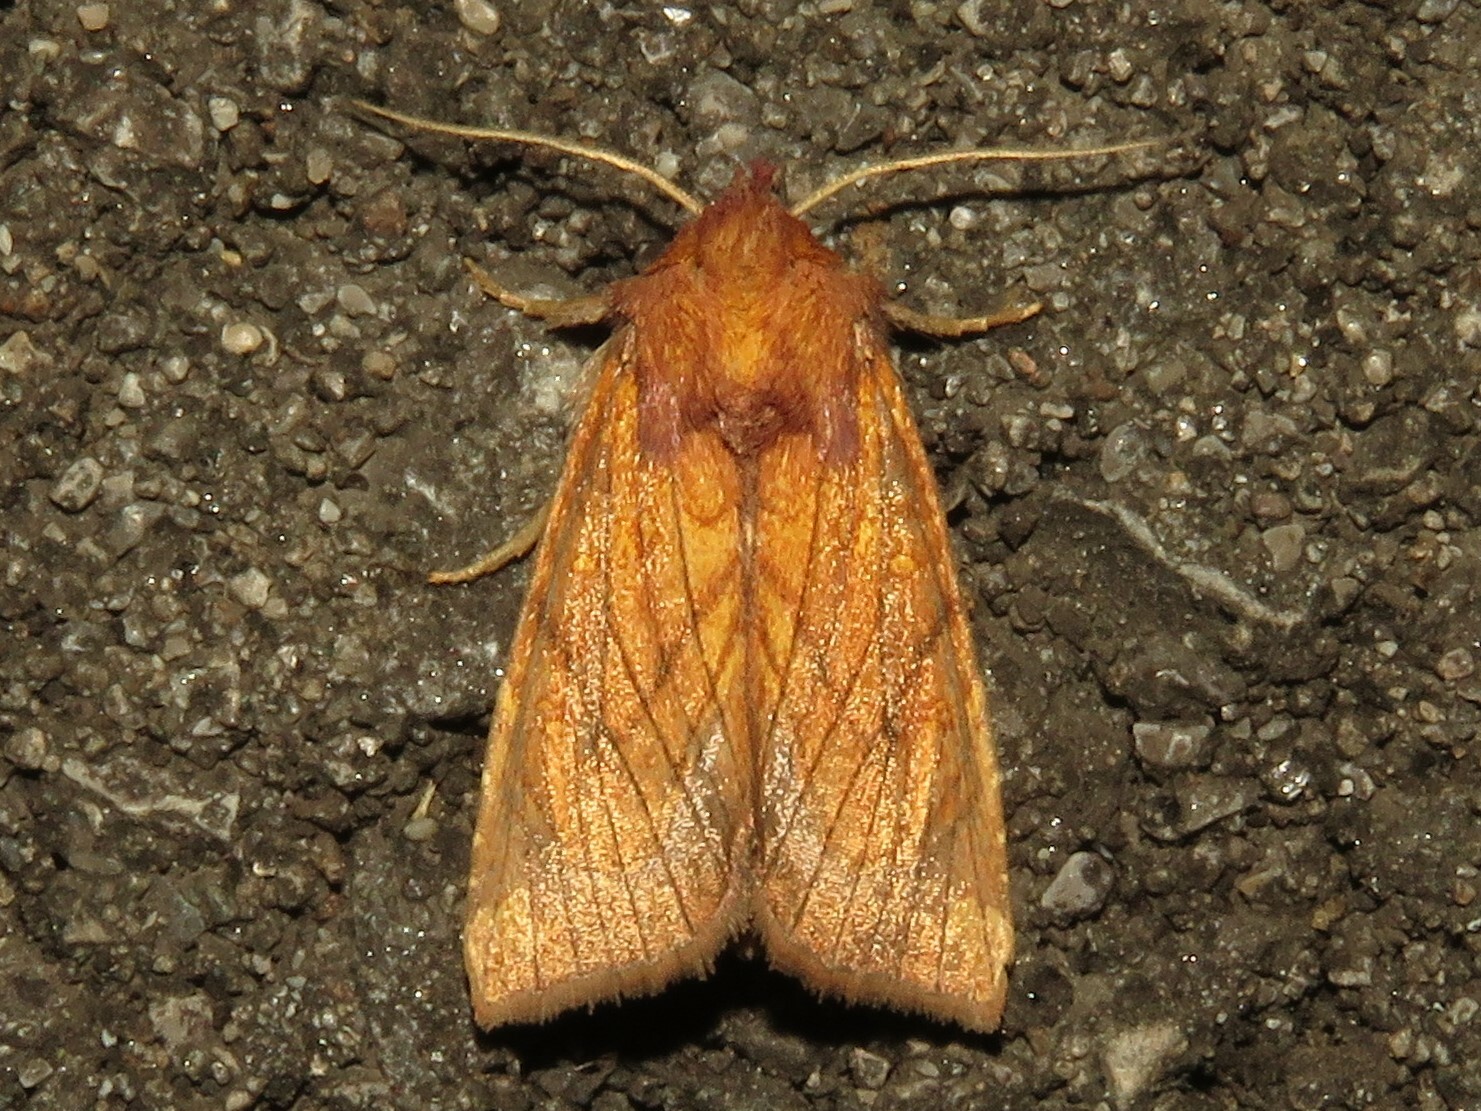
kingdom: Animalia
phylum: Arthropoda
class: Insecta
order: Lepidoptera
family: Noctuidae
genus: Papaipema
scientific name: Papaipema inquaesita
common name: Sensitive fern borer moth
